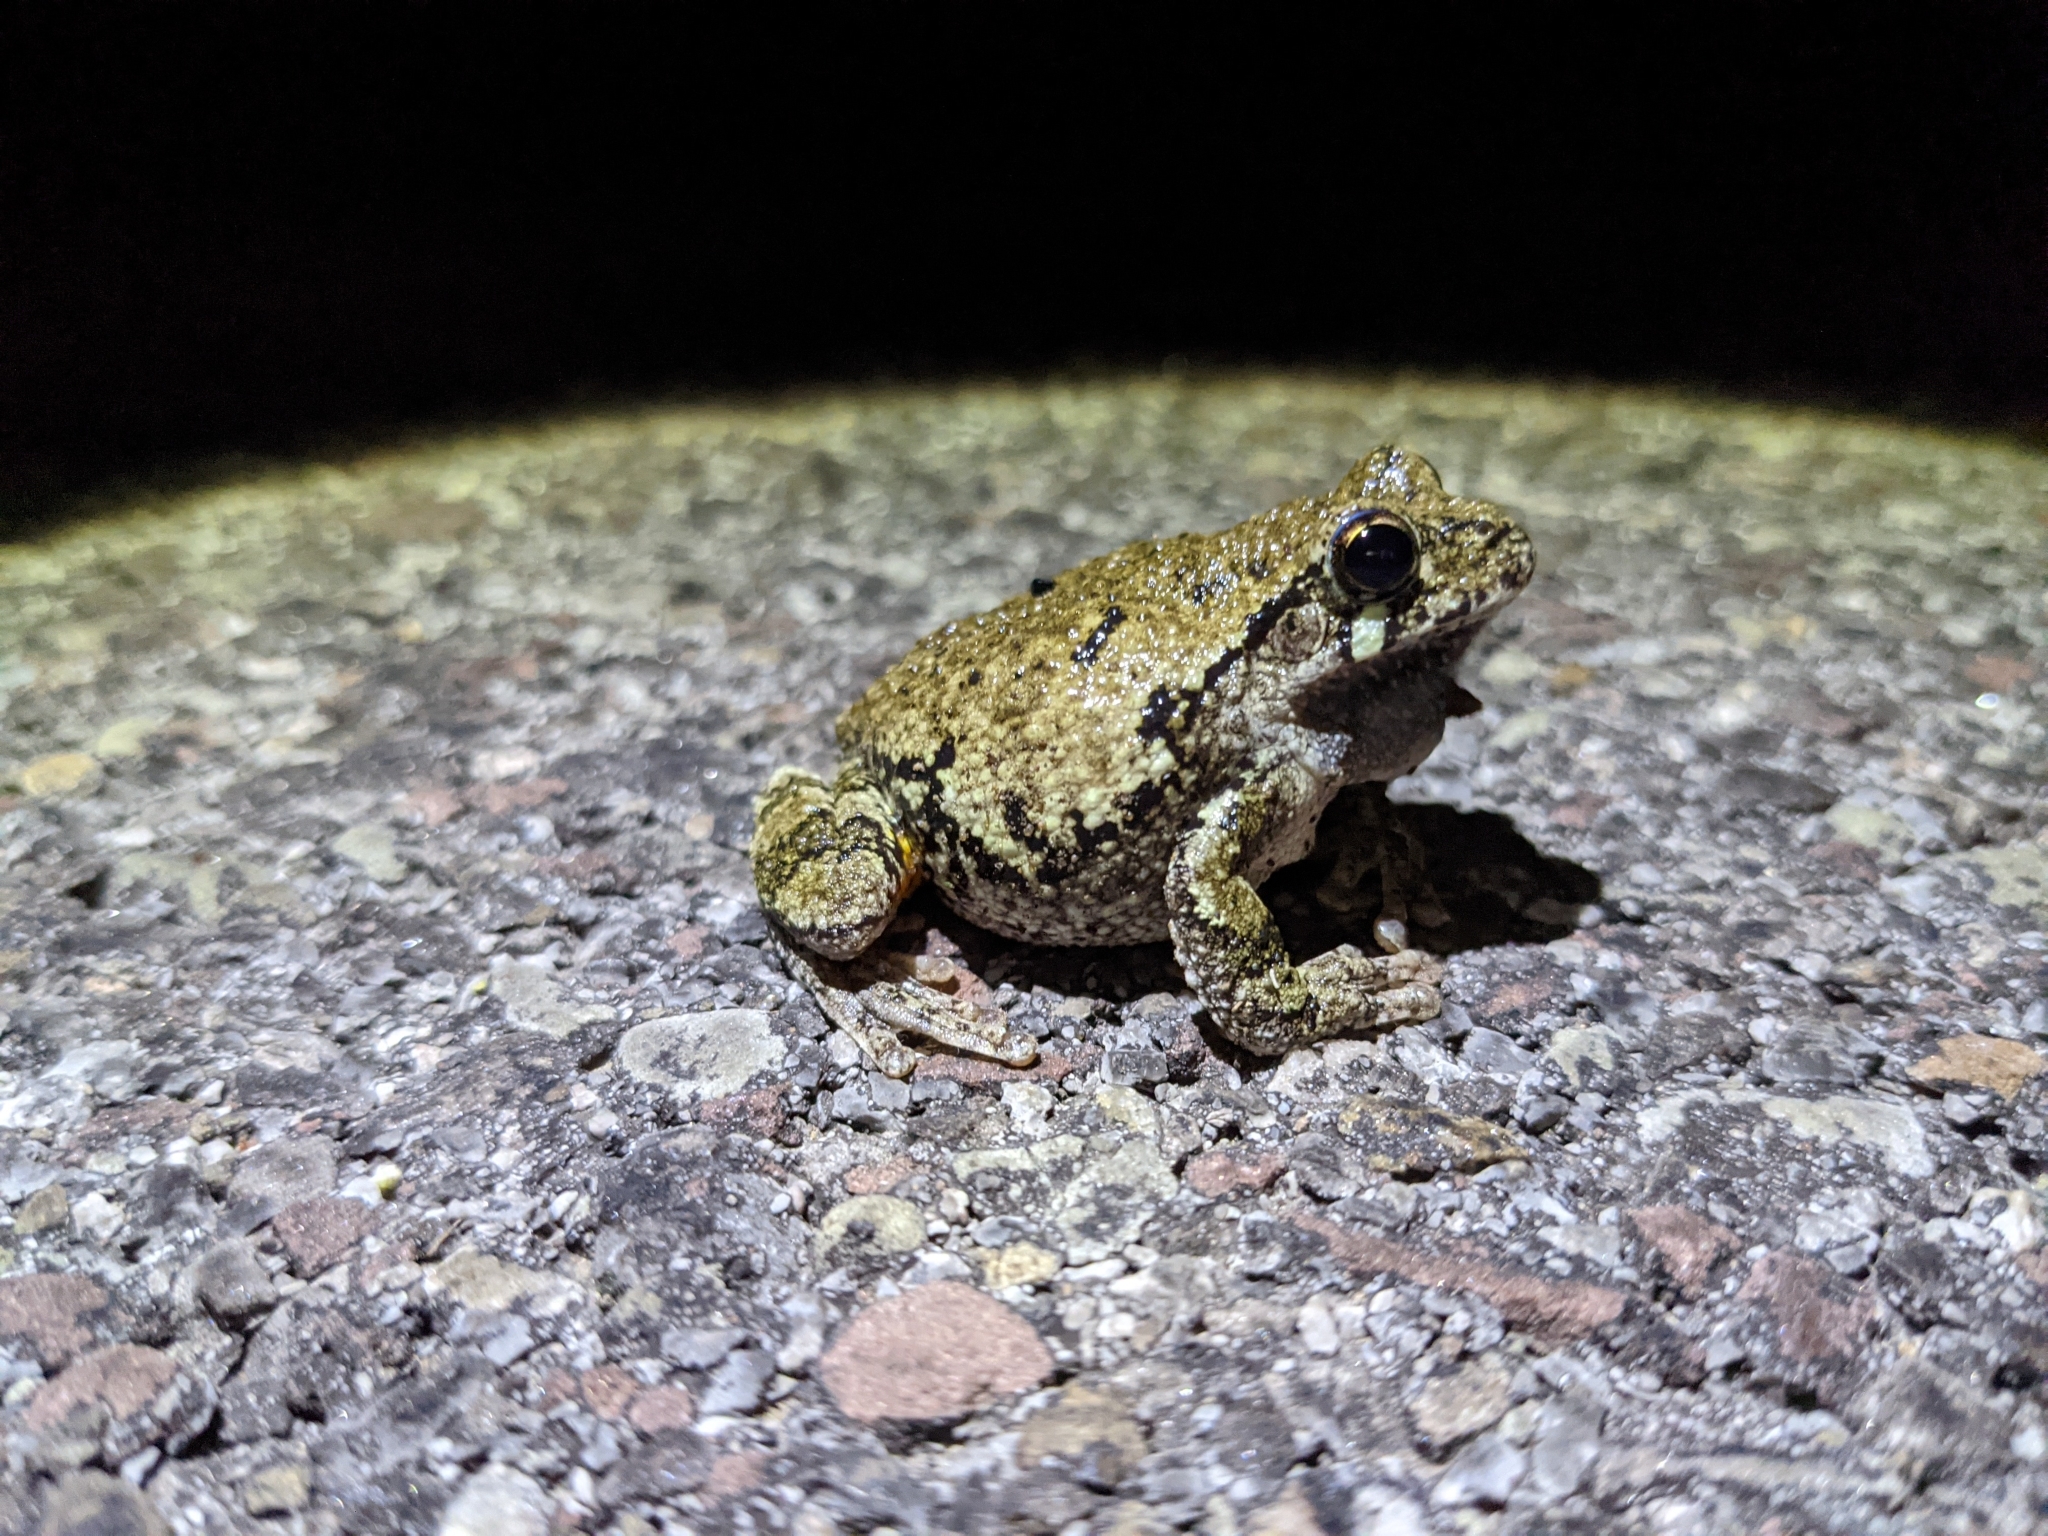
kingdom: Animalia
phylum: Chordata
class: Amphibia
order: Anura
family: Hylidae
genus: Dryophytes
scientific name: Dryophytes versicolor
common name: Gray treefrog
